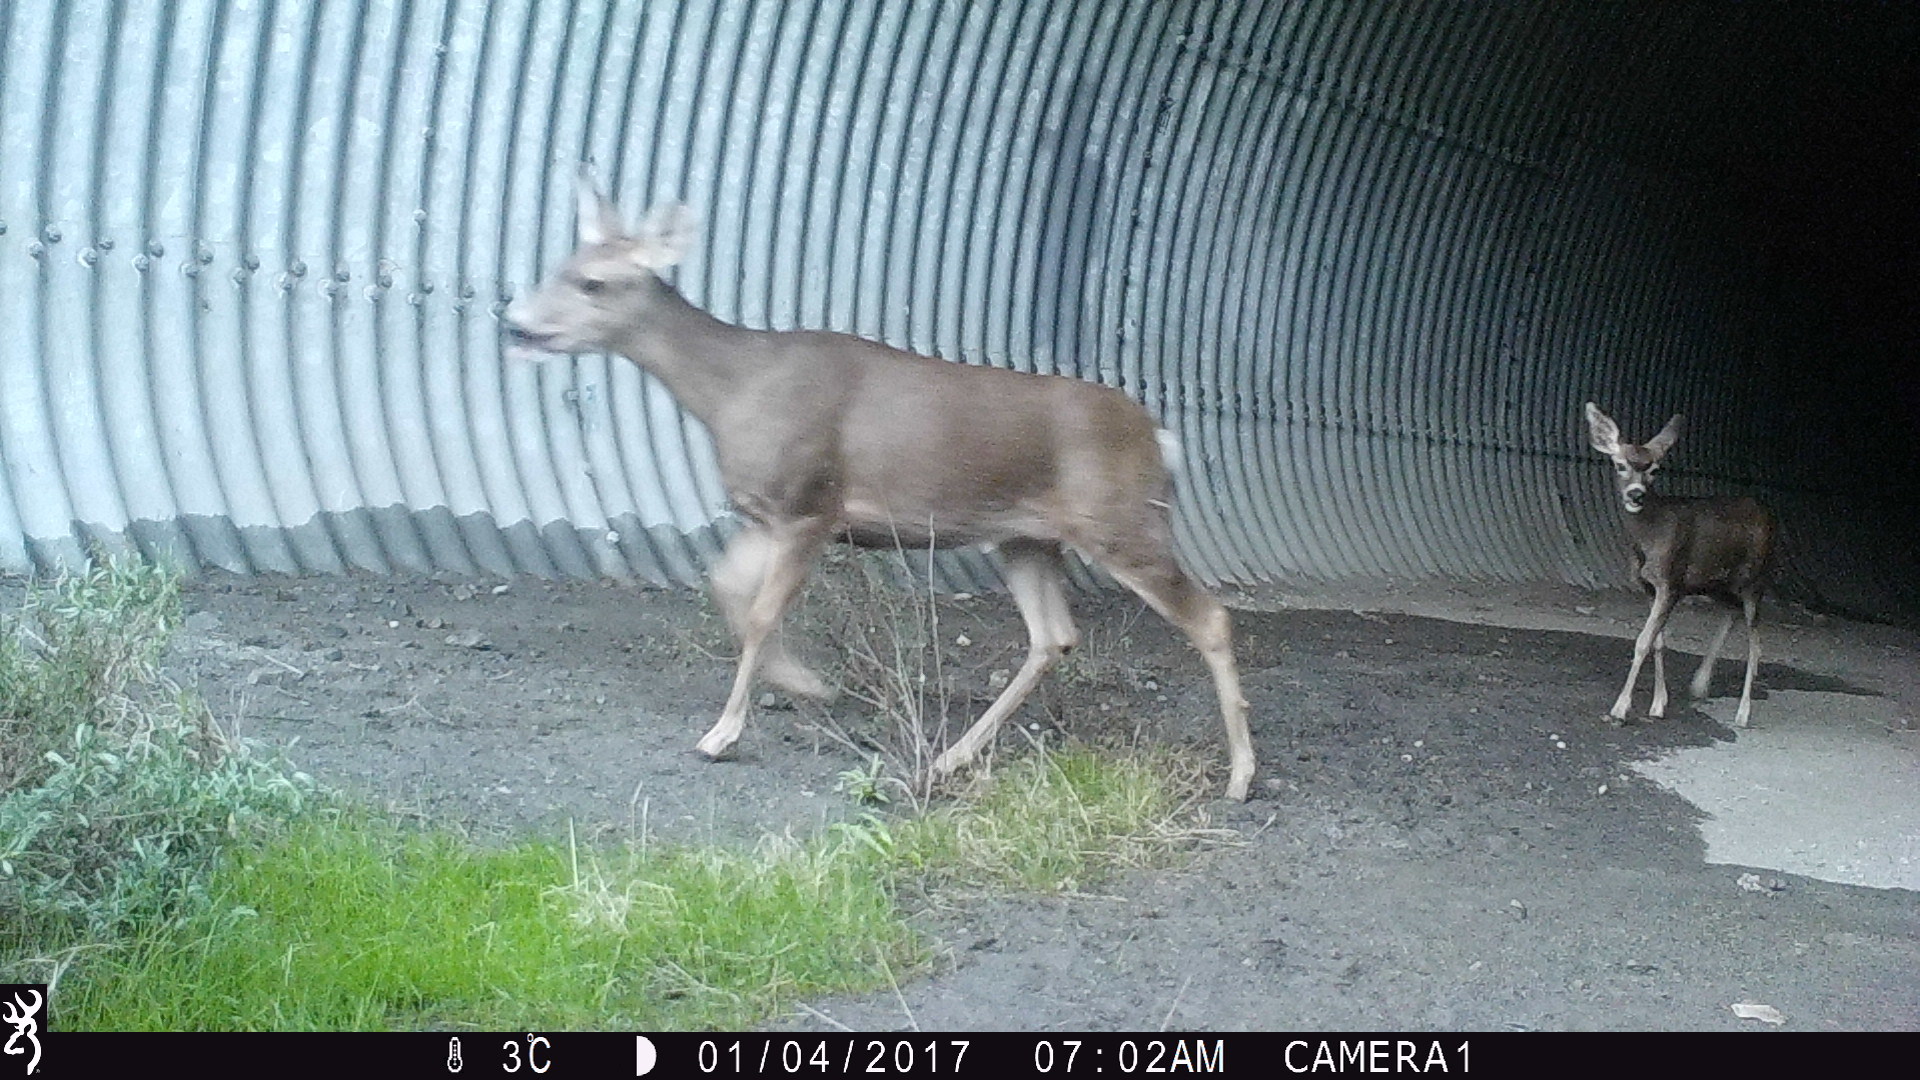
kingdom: Animalia
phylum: Chordata
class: Mammalia
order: Artiodactyla
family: Cervidae
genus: Odocoileus
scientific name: Odocoileus hemionus
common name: Mule deer
